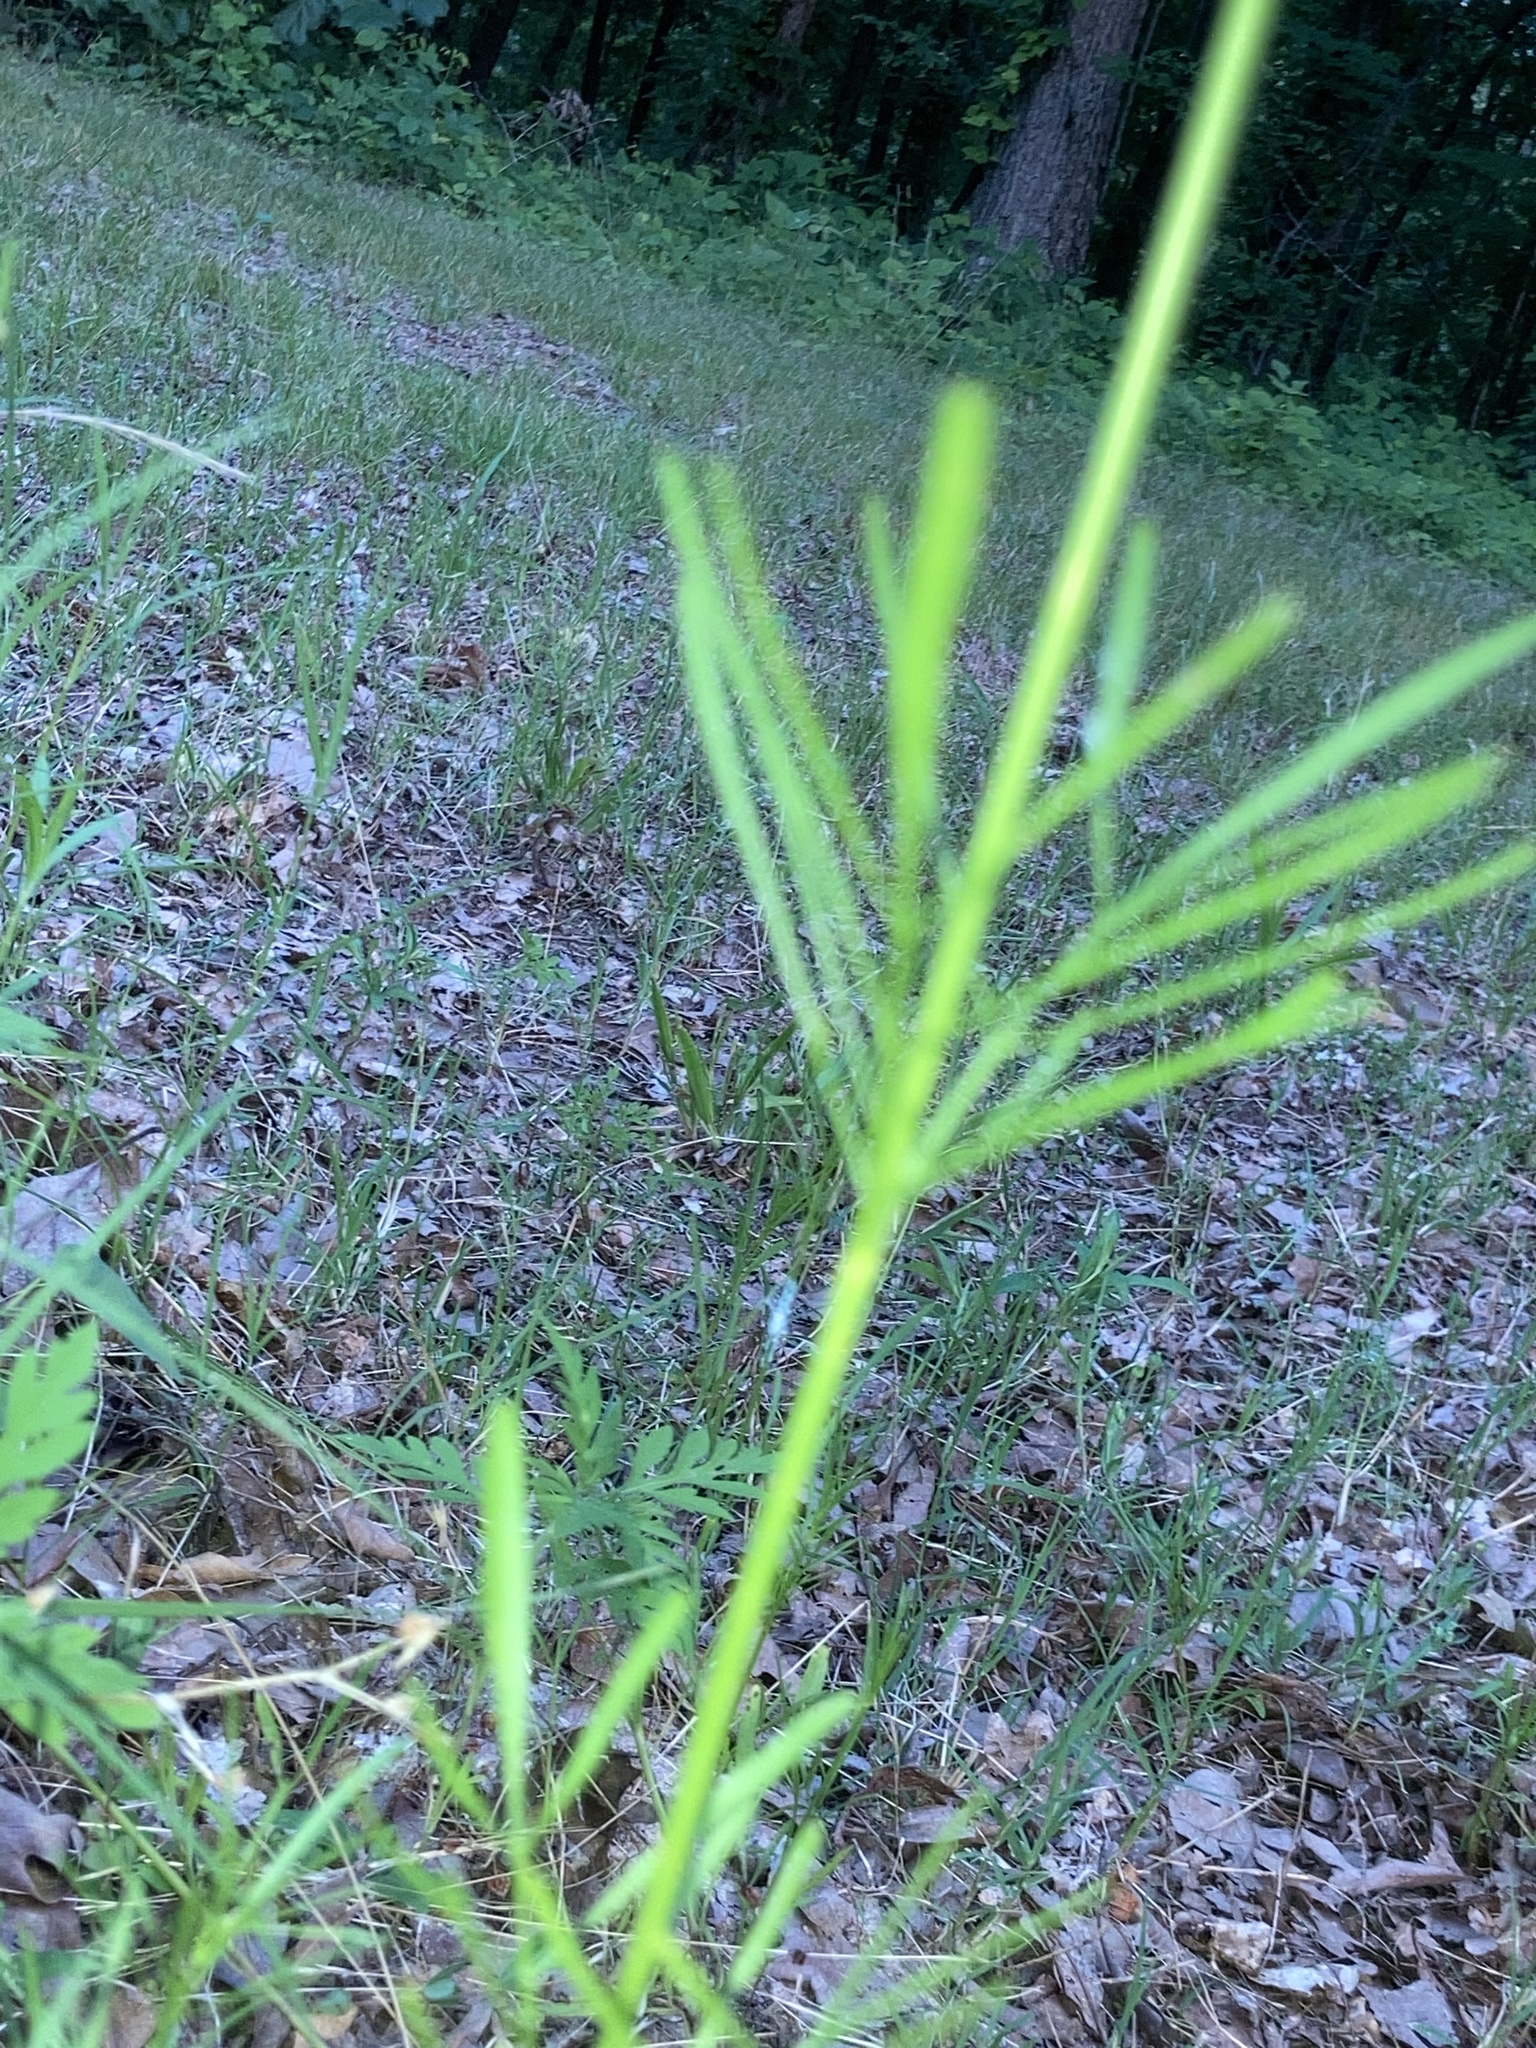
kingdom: Plantae
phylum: Tracheophyta
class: Magnoliopsida
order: Asterales
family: Asteraceae
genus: Coreopsis
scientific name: Coreopsis tinctoria
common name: Garden tickseed
